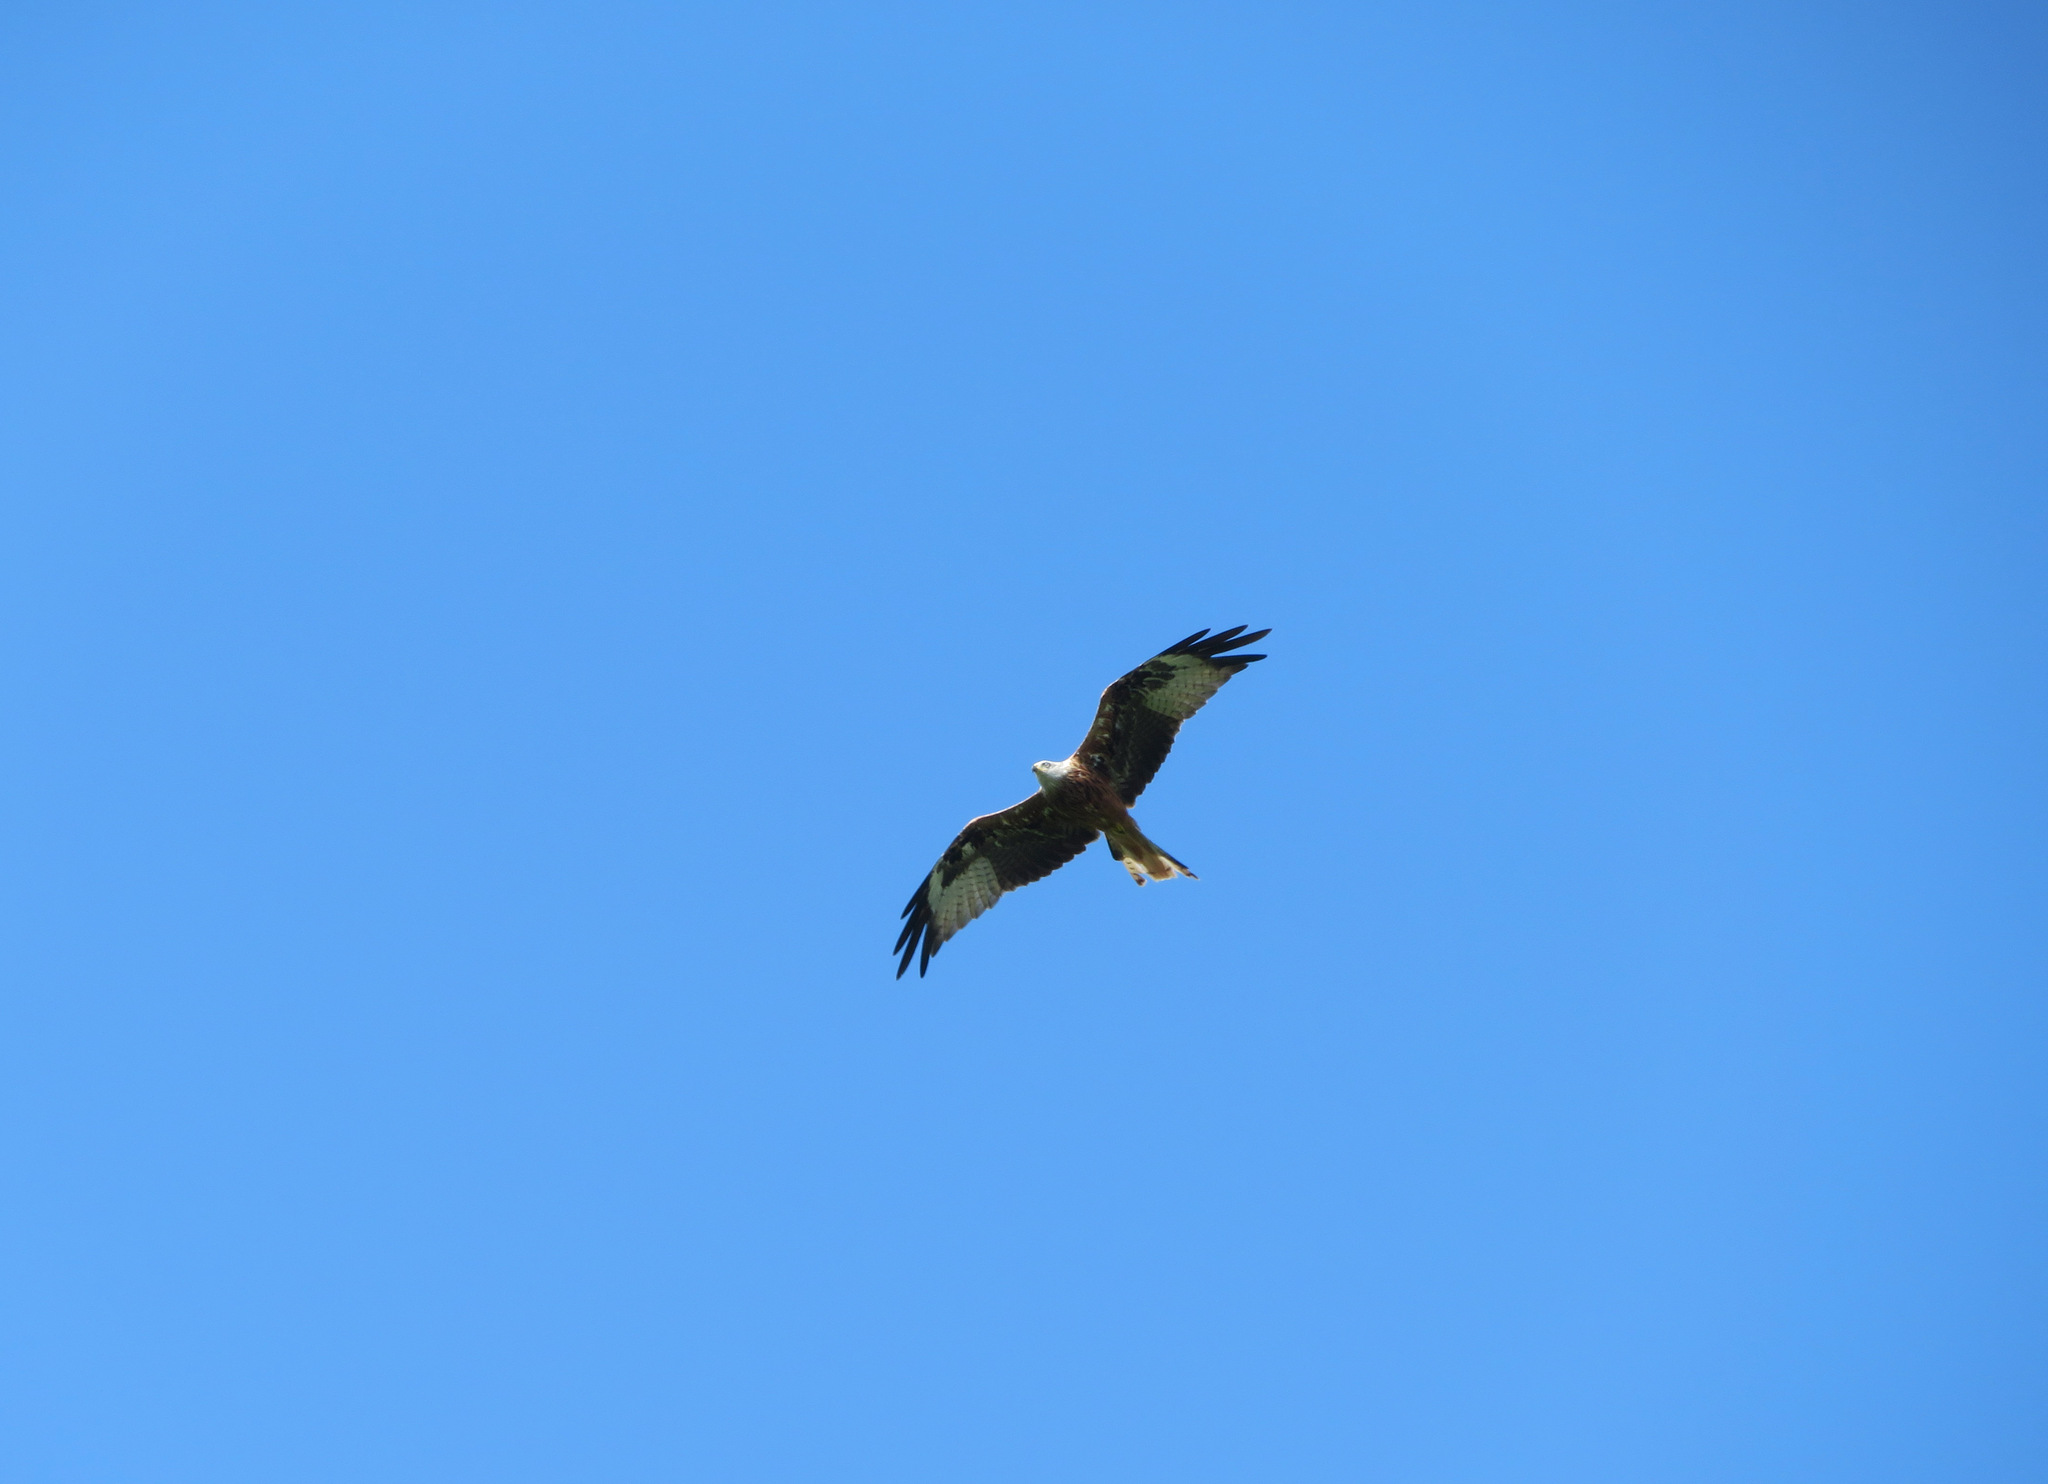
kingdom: Animalia
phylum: Chordata
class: Aves
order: Accipitriformes
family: Accipitridae
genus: Milvus
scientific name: Milvus milvus
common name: Red kite
